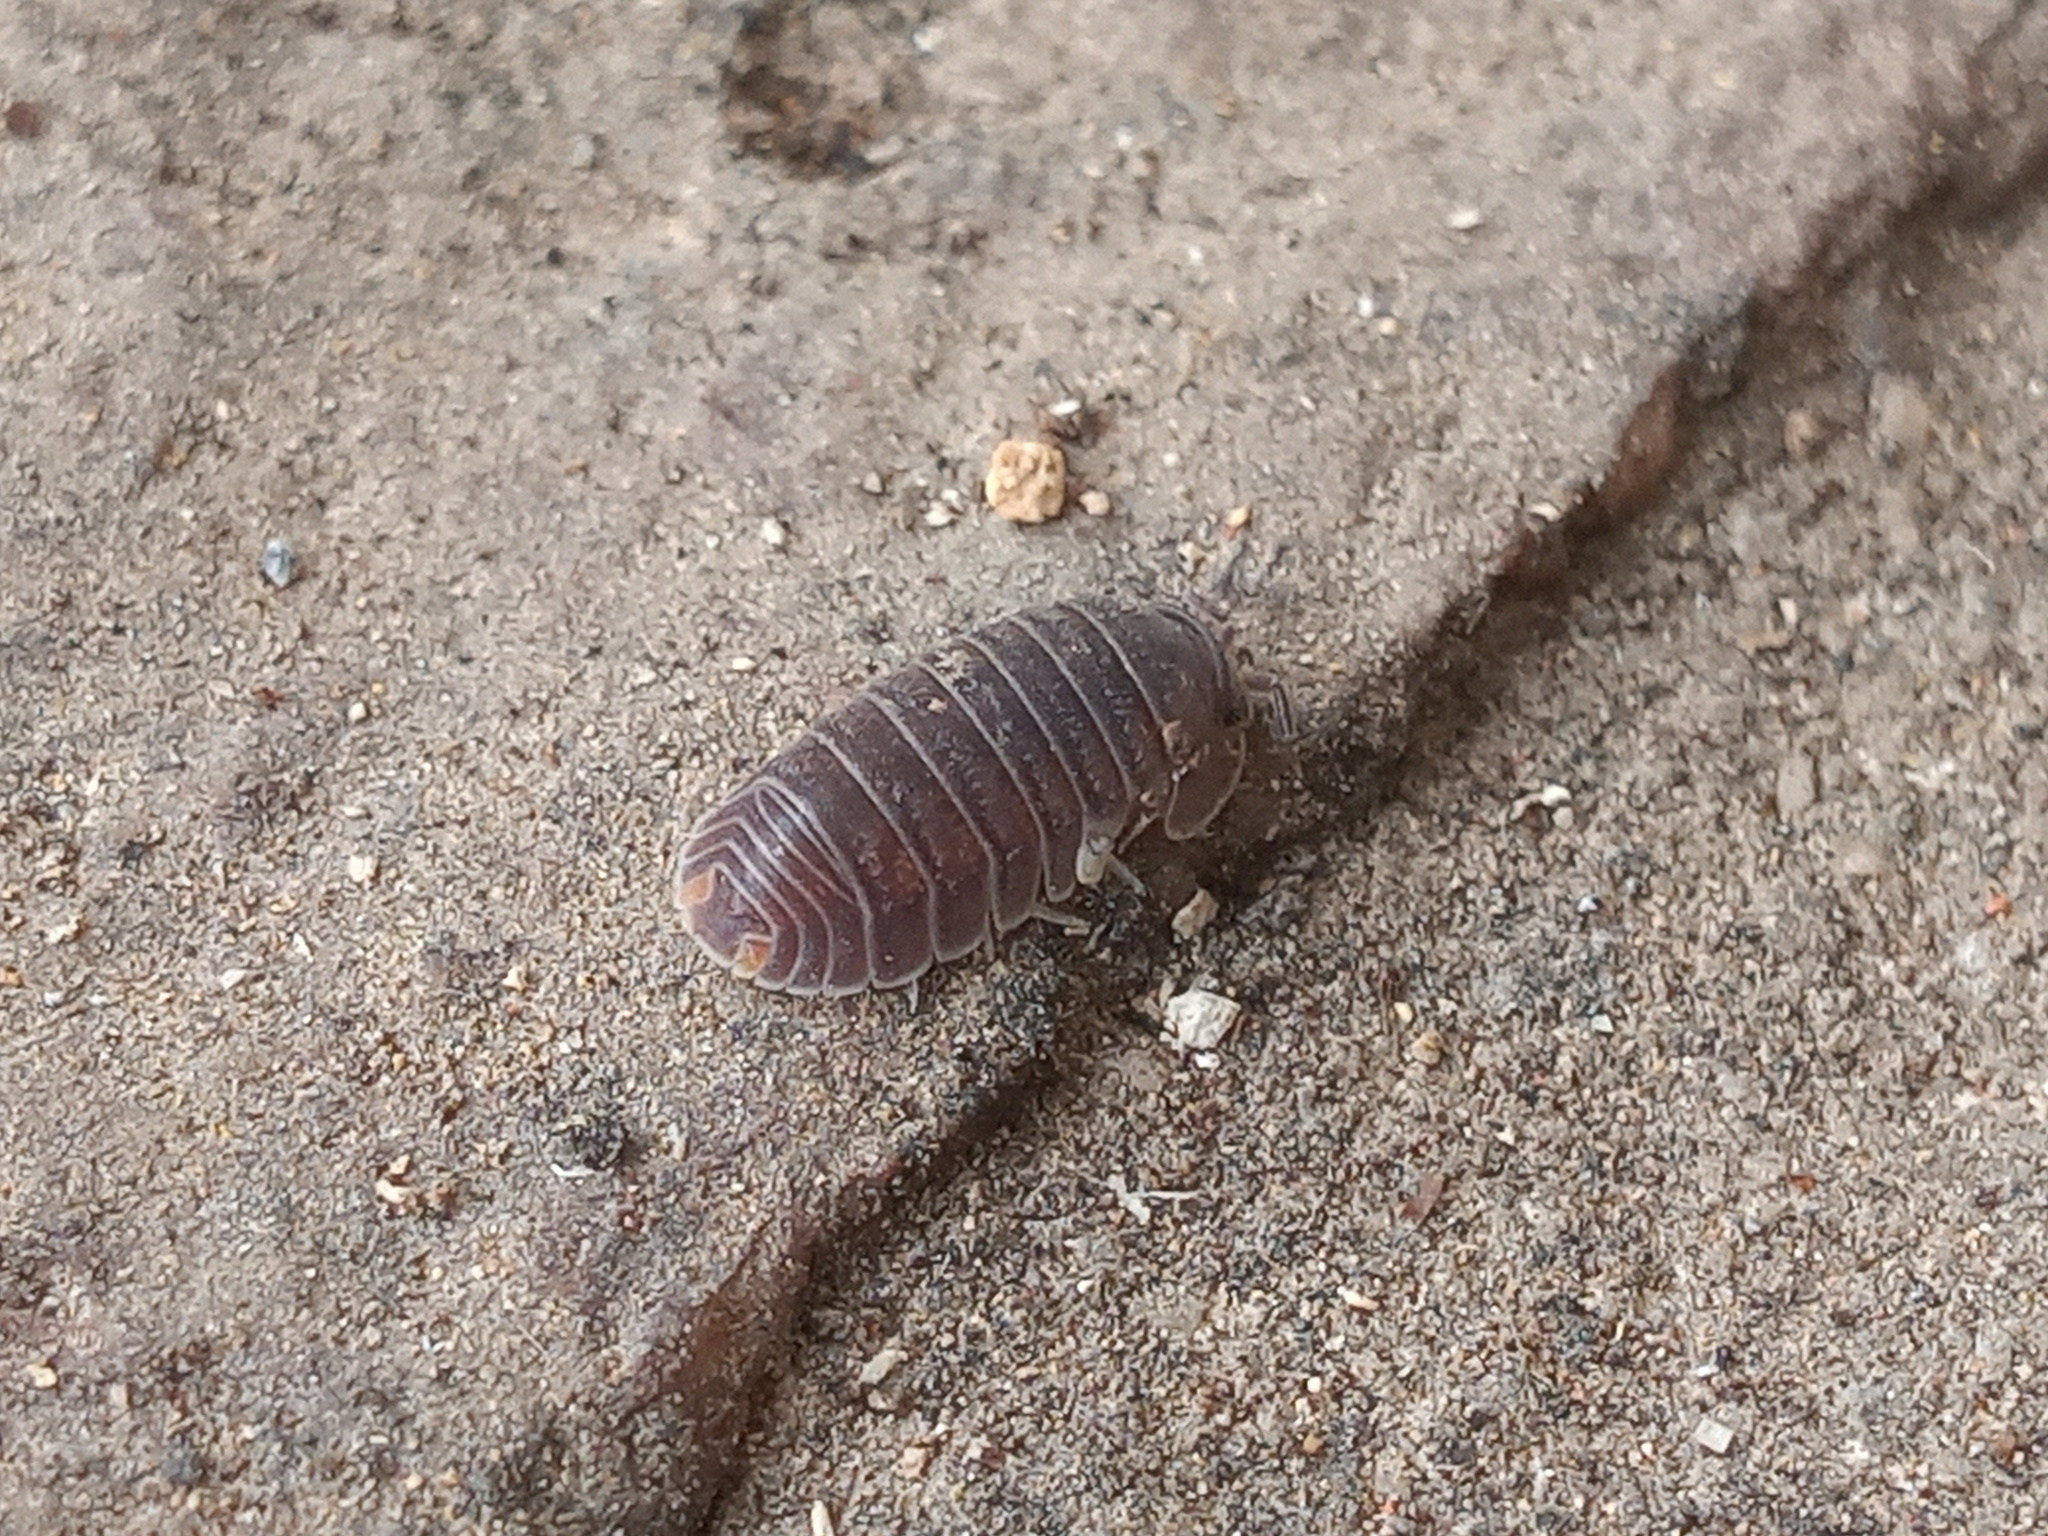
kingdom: Animalia
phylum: Arthropoda
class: Malacostraca
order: Isopoda
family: Armadillidae
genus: Cubaris
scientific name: Cubaris murina
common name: Pillbug
